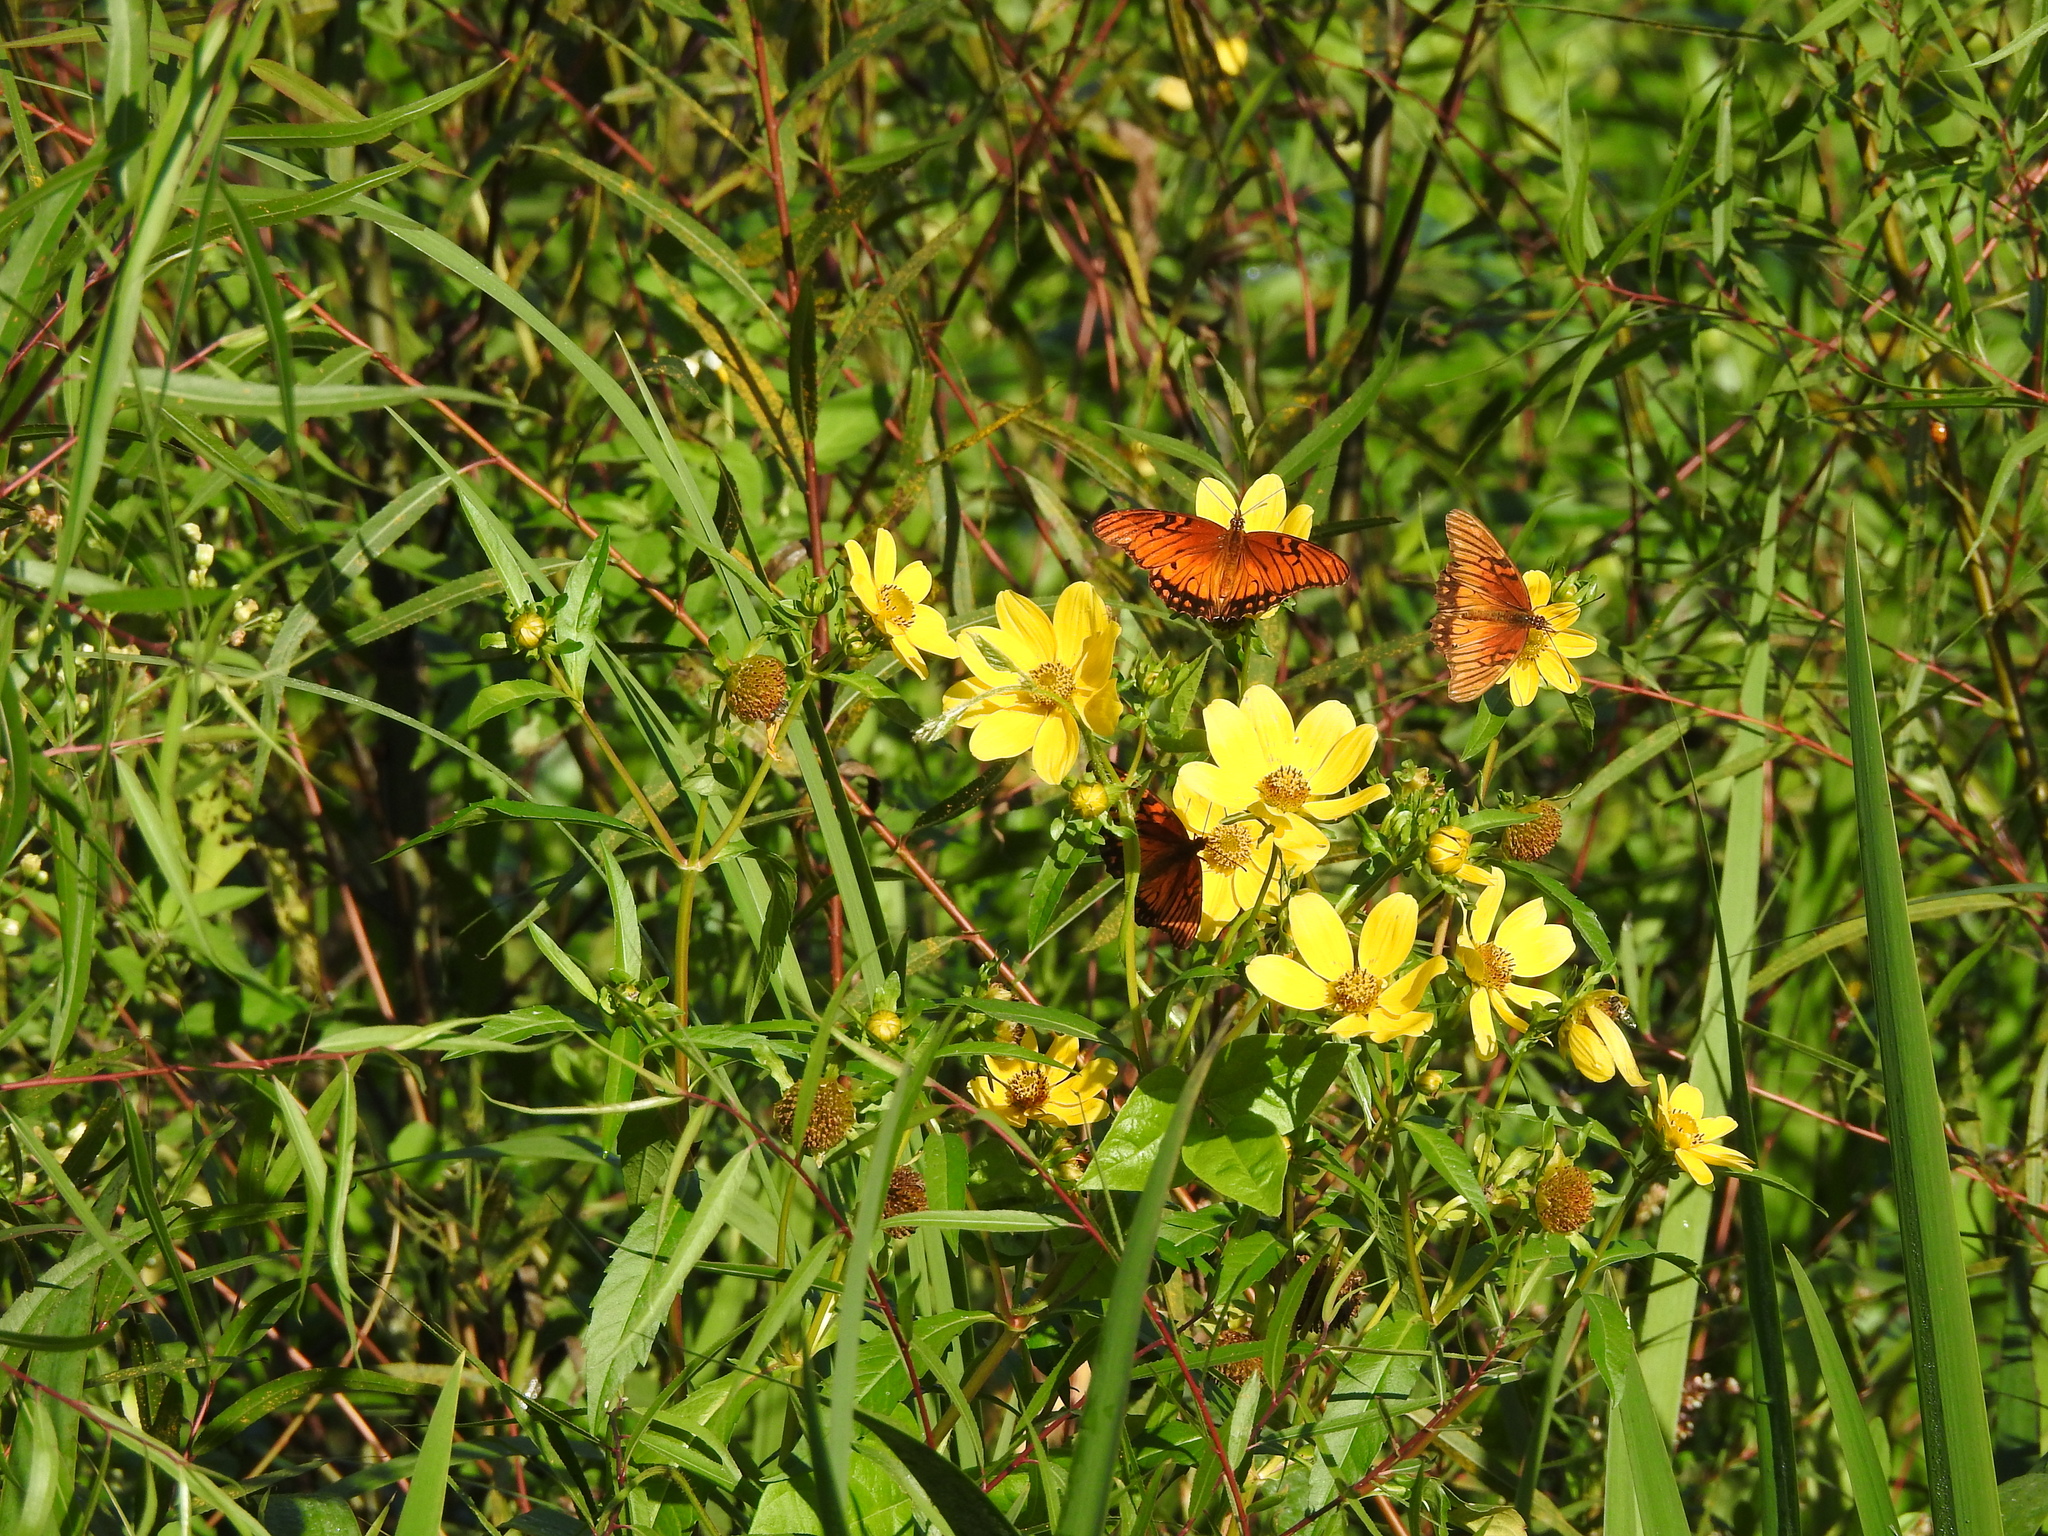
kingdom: Animalia
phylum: Arthropoda
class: Insecta
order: Lepidoptera
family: Nymphalidae
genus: Dione
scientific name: Dione moneta
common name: Mexican silverspot
